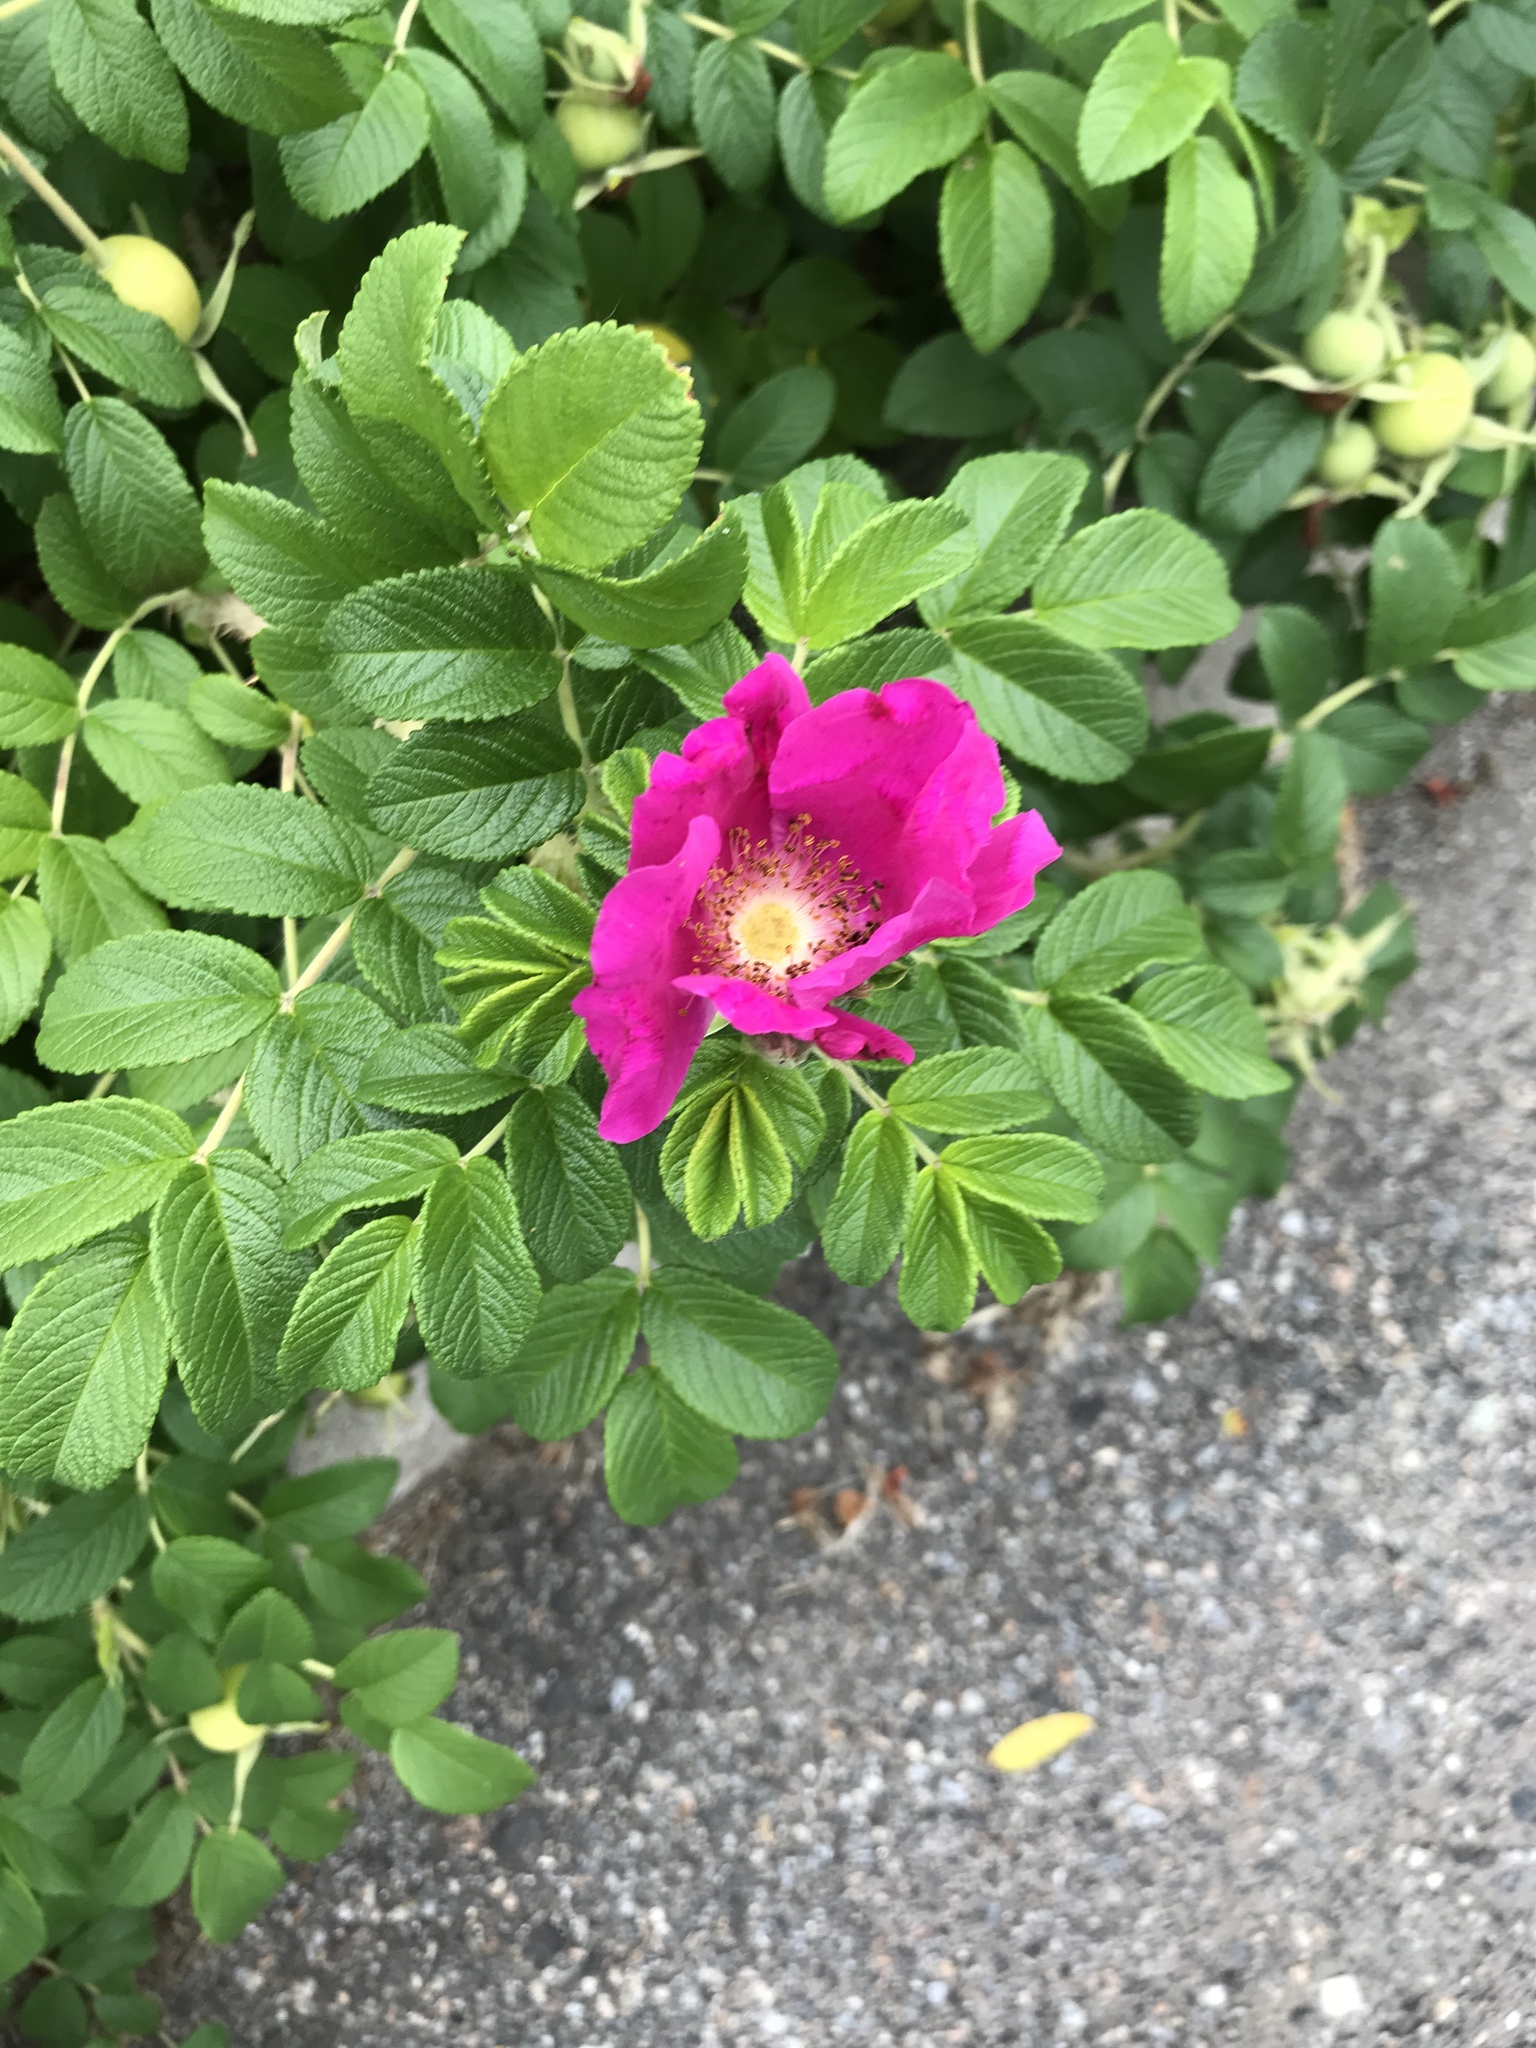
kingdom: Plantae
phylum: Tracheophyta
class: Magnoliopsida
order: Rosales
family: Rosaceae
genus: Rosa
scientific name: Rosa rugosa
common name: Japanese rose
